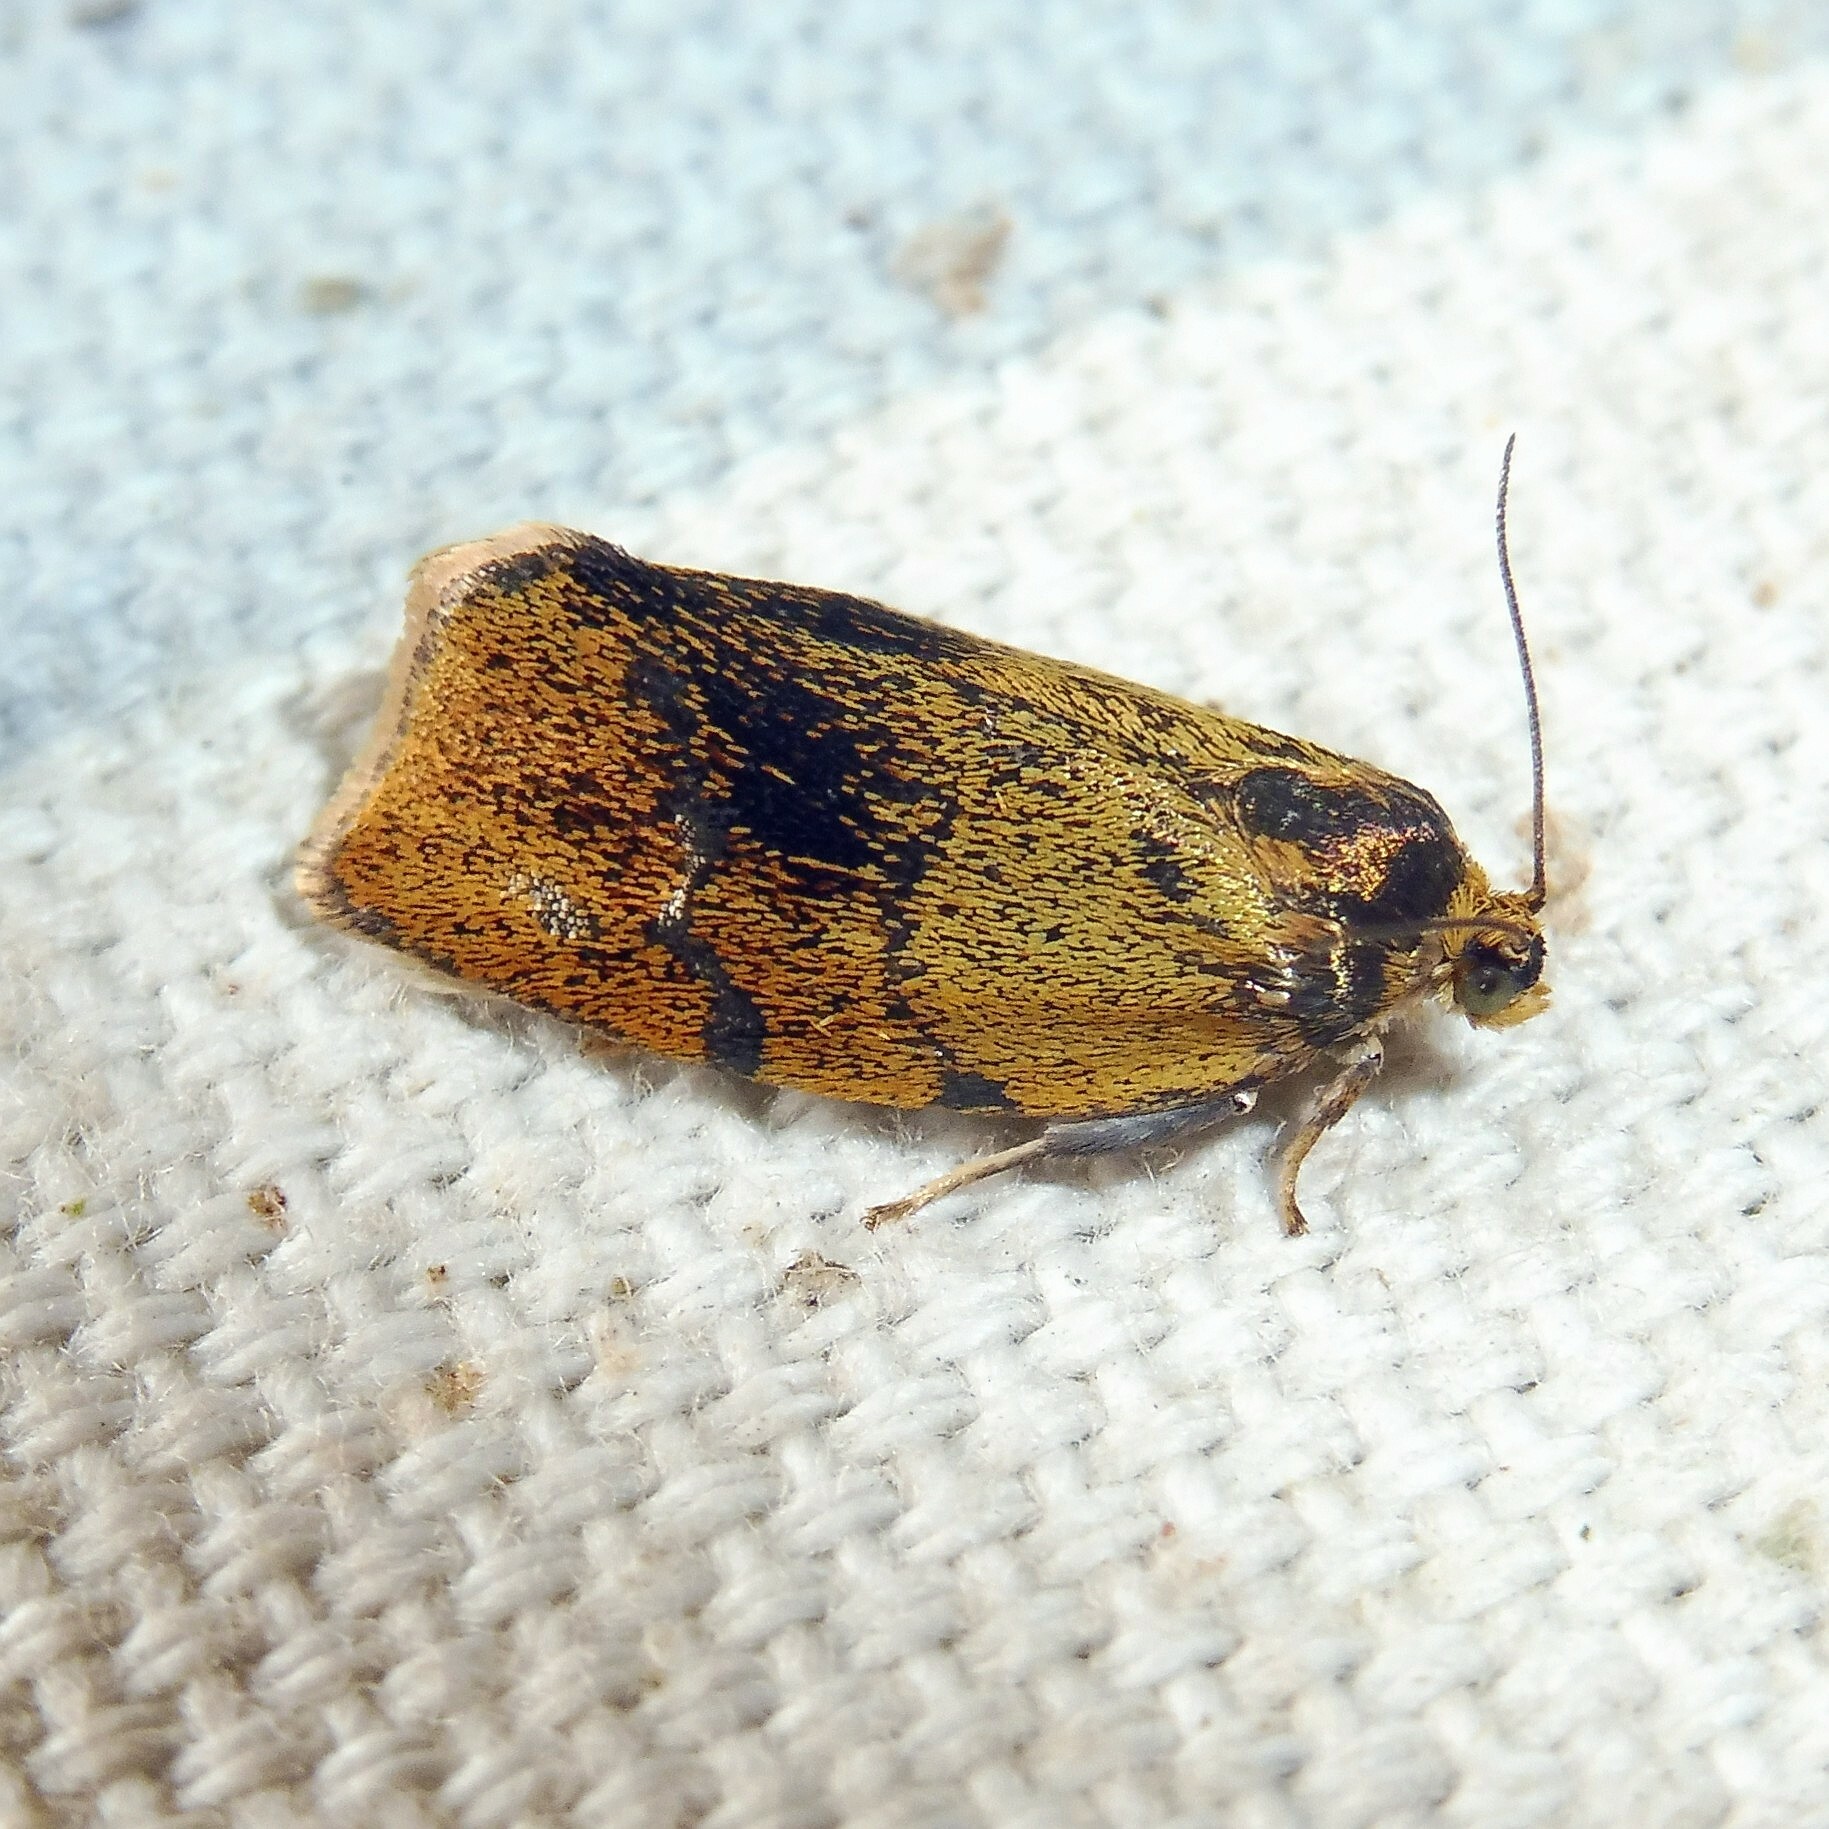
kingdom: Animalia
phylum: Arthropoda
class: Insecta
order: Lepidoptera
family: Tortricidae
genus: Ptycholoma
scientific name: Ptycholoma lecheana
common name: Leches twist moth
